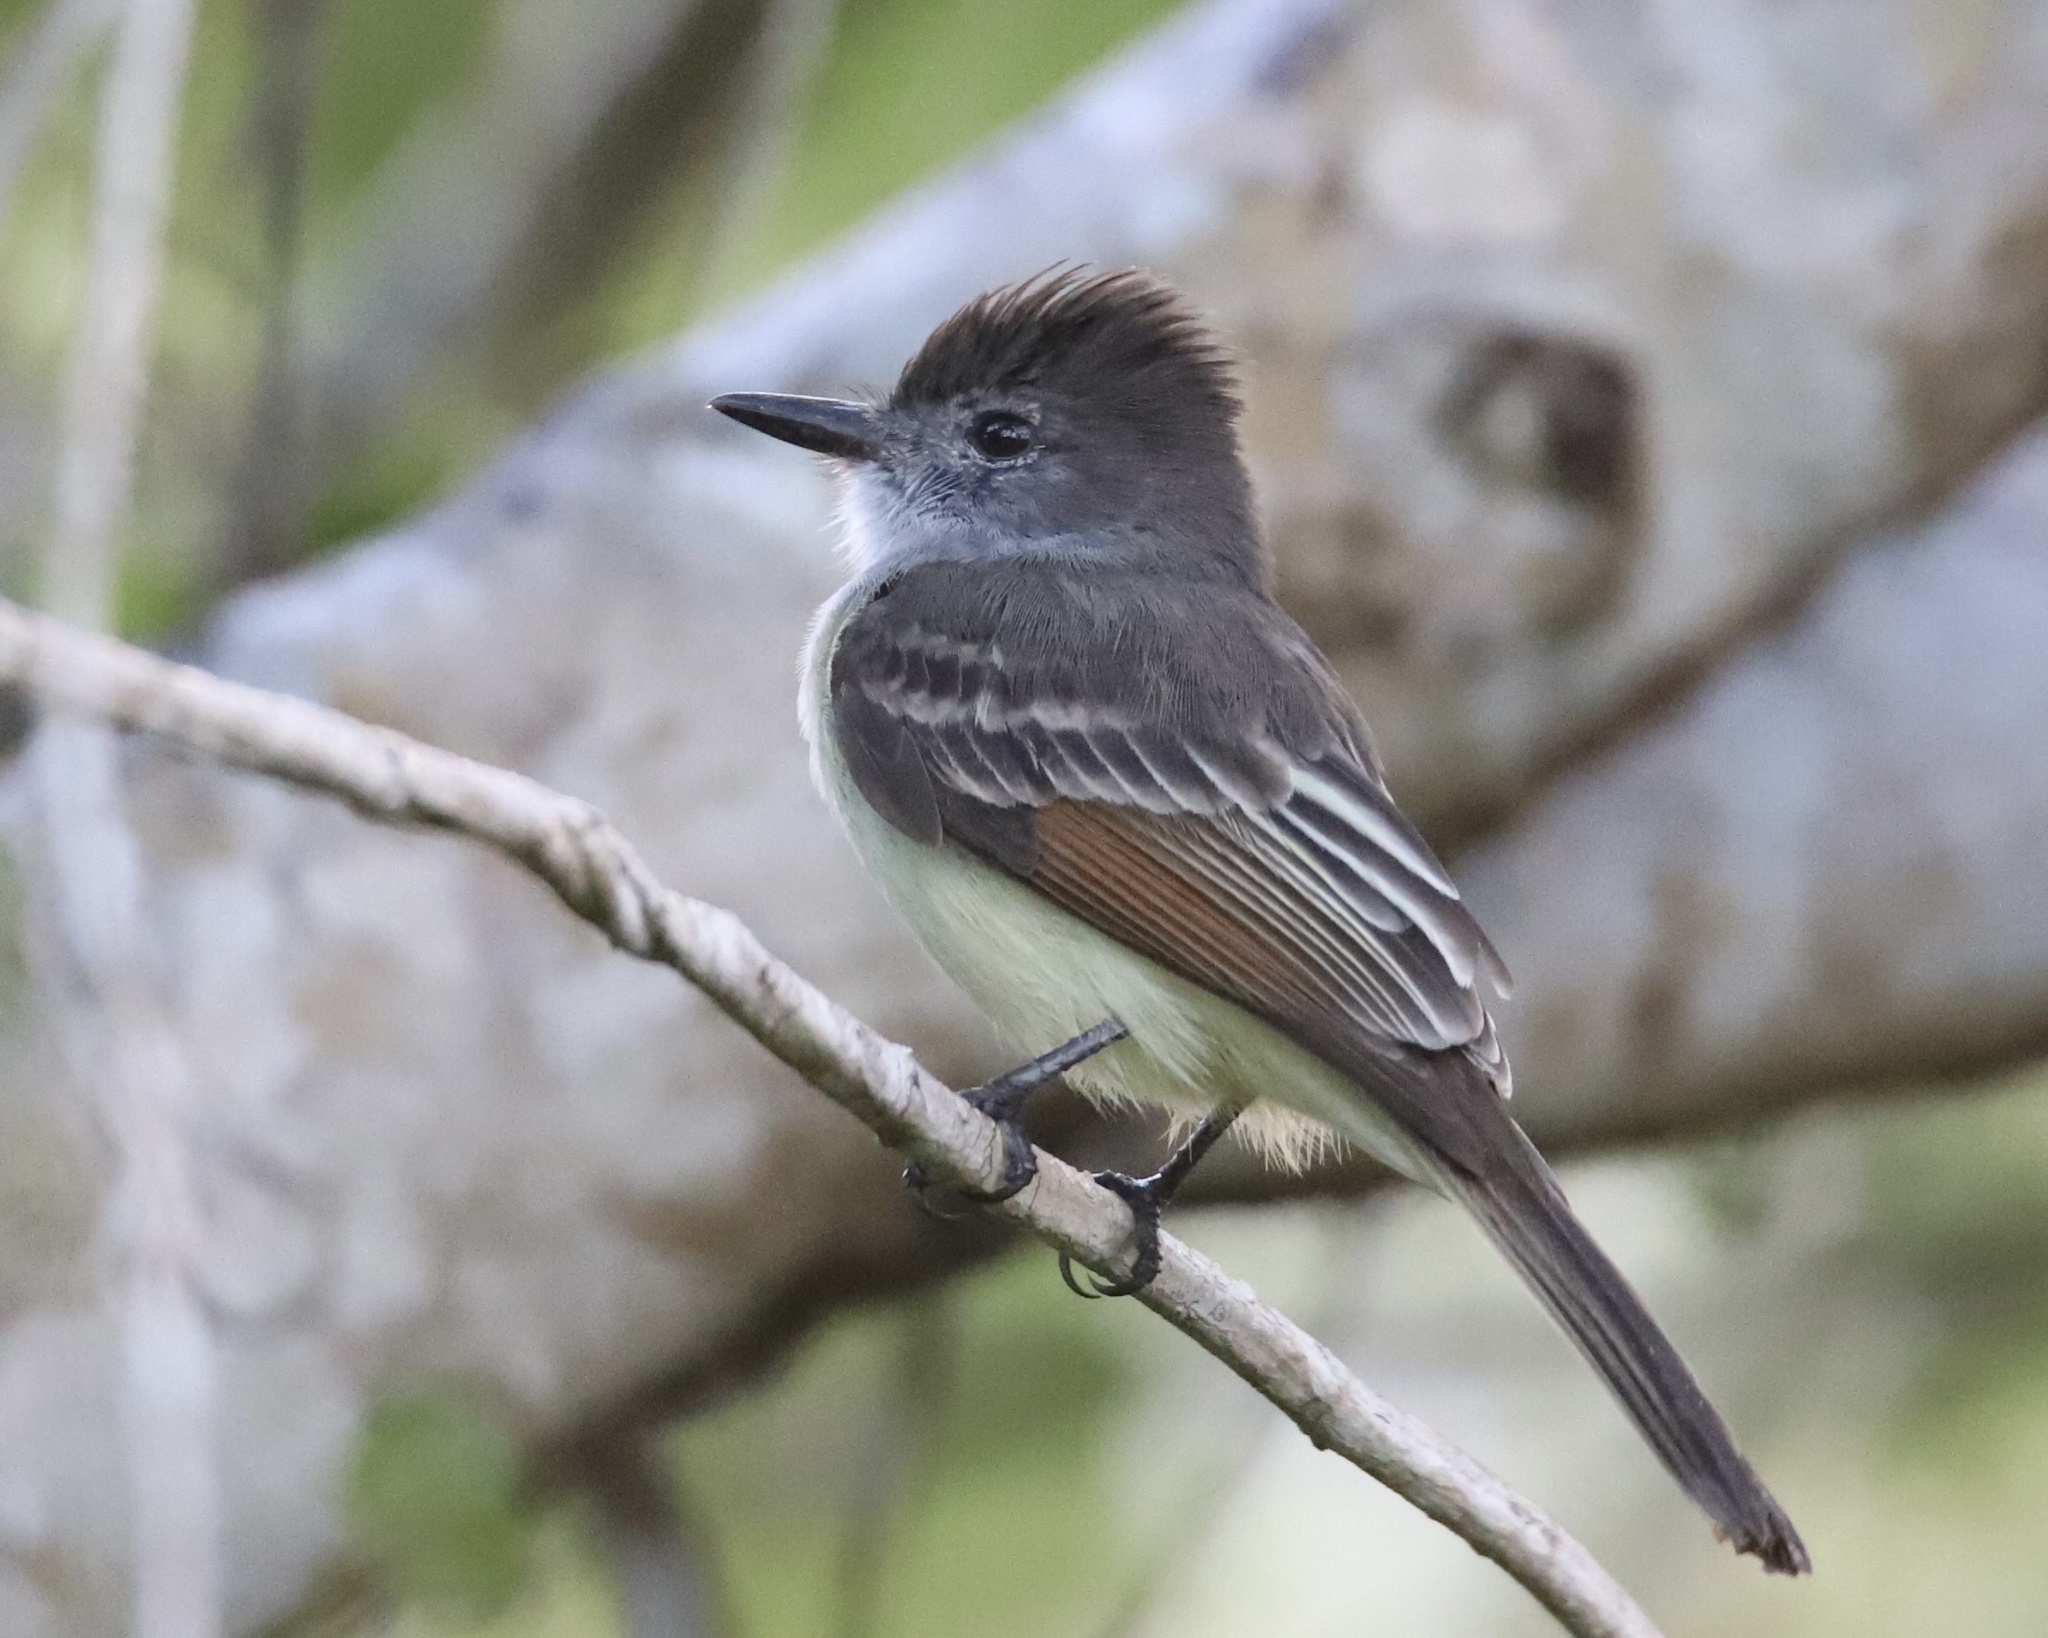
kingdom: Animalia
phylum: Chordata
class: Aves
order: Passeriformes
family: Tyrannidae
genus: Myiarchus
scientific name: Myiarchus stolidus
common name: Stolid flycatcher
